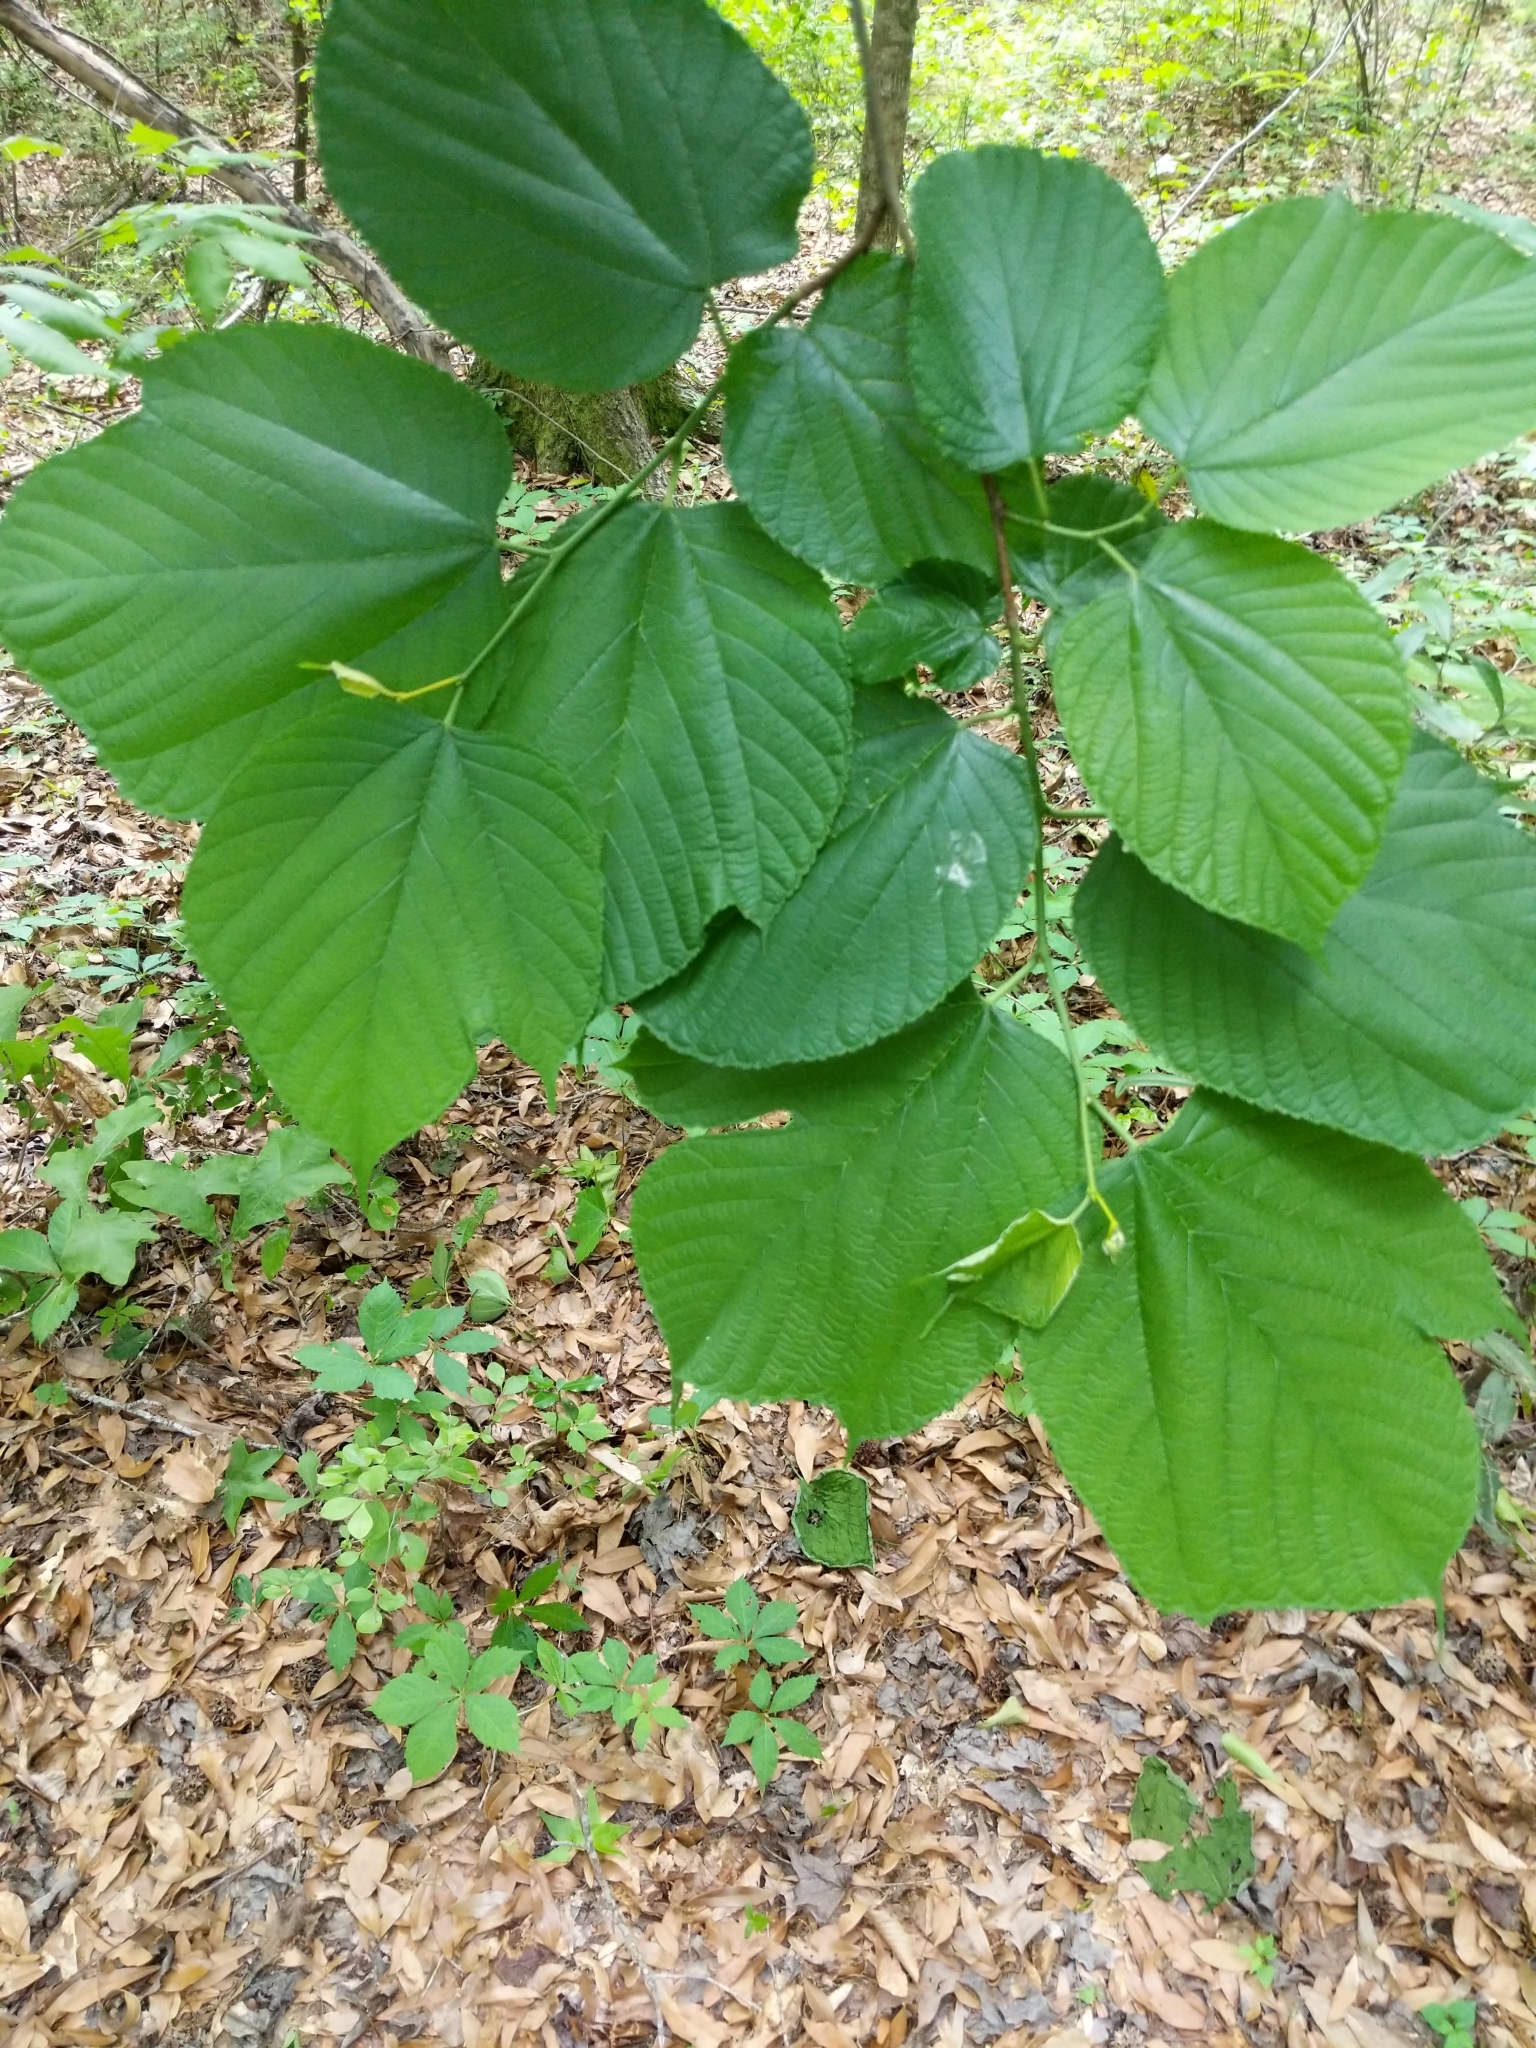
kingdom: Plantae
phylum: Tracheophyta
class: Magnoliopsida
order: Rosales
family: Moraceae
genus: Morus
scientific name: Morus rubra
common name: Red mulberry
